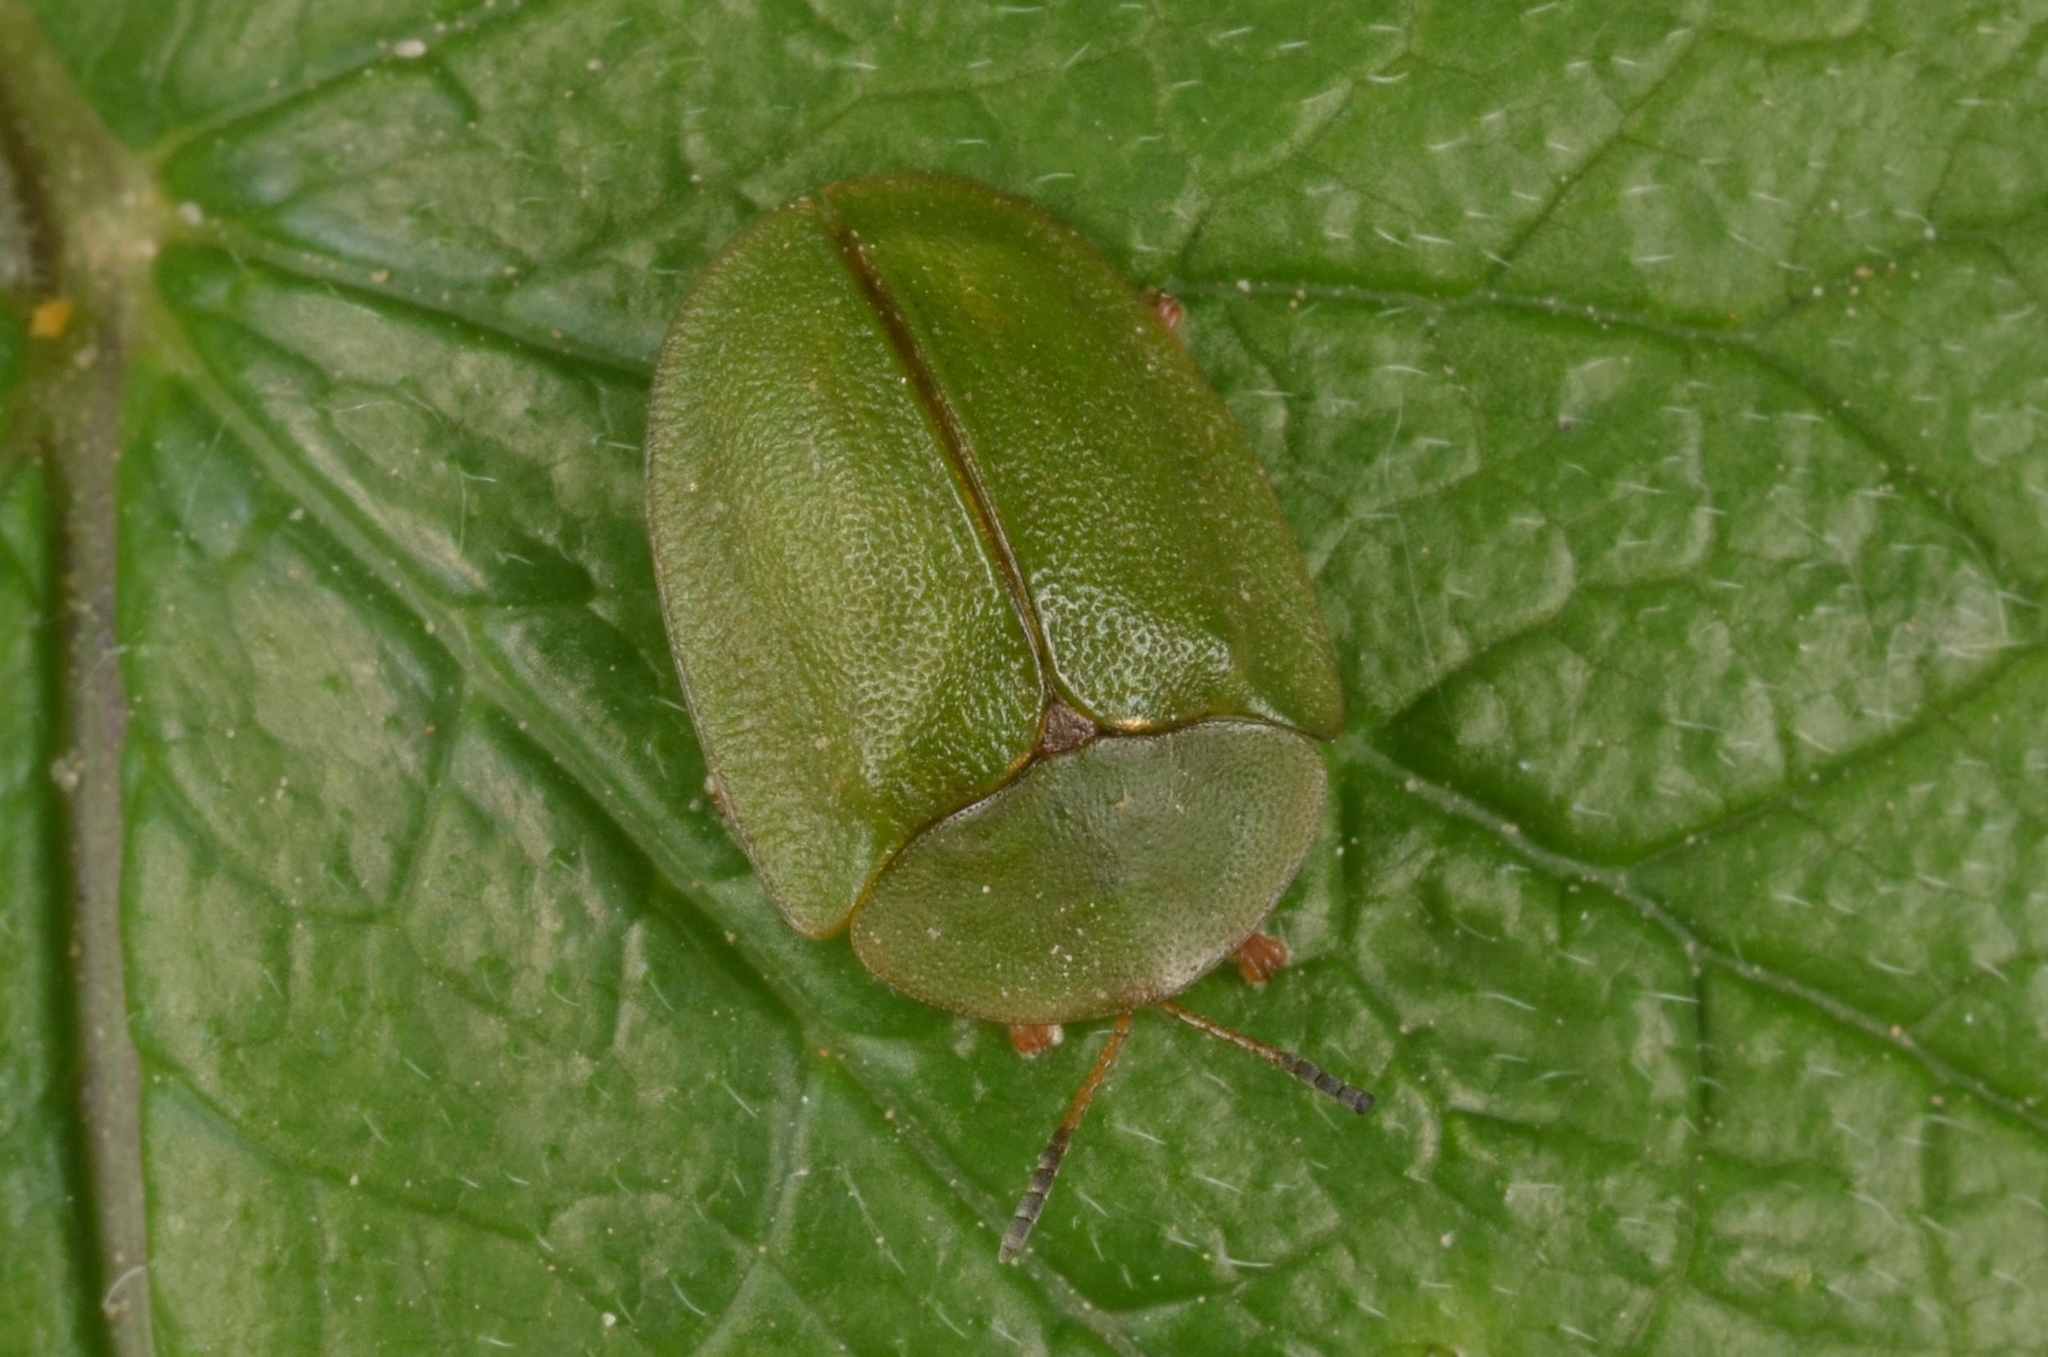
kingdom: Animalia
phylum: Arthropoda
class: Insecta
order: Coleoptera
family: Chrysomelidae
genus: Cassida
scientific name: Cassida viridis
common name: Green tortoise beetle
